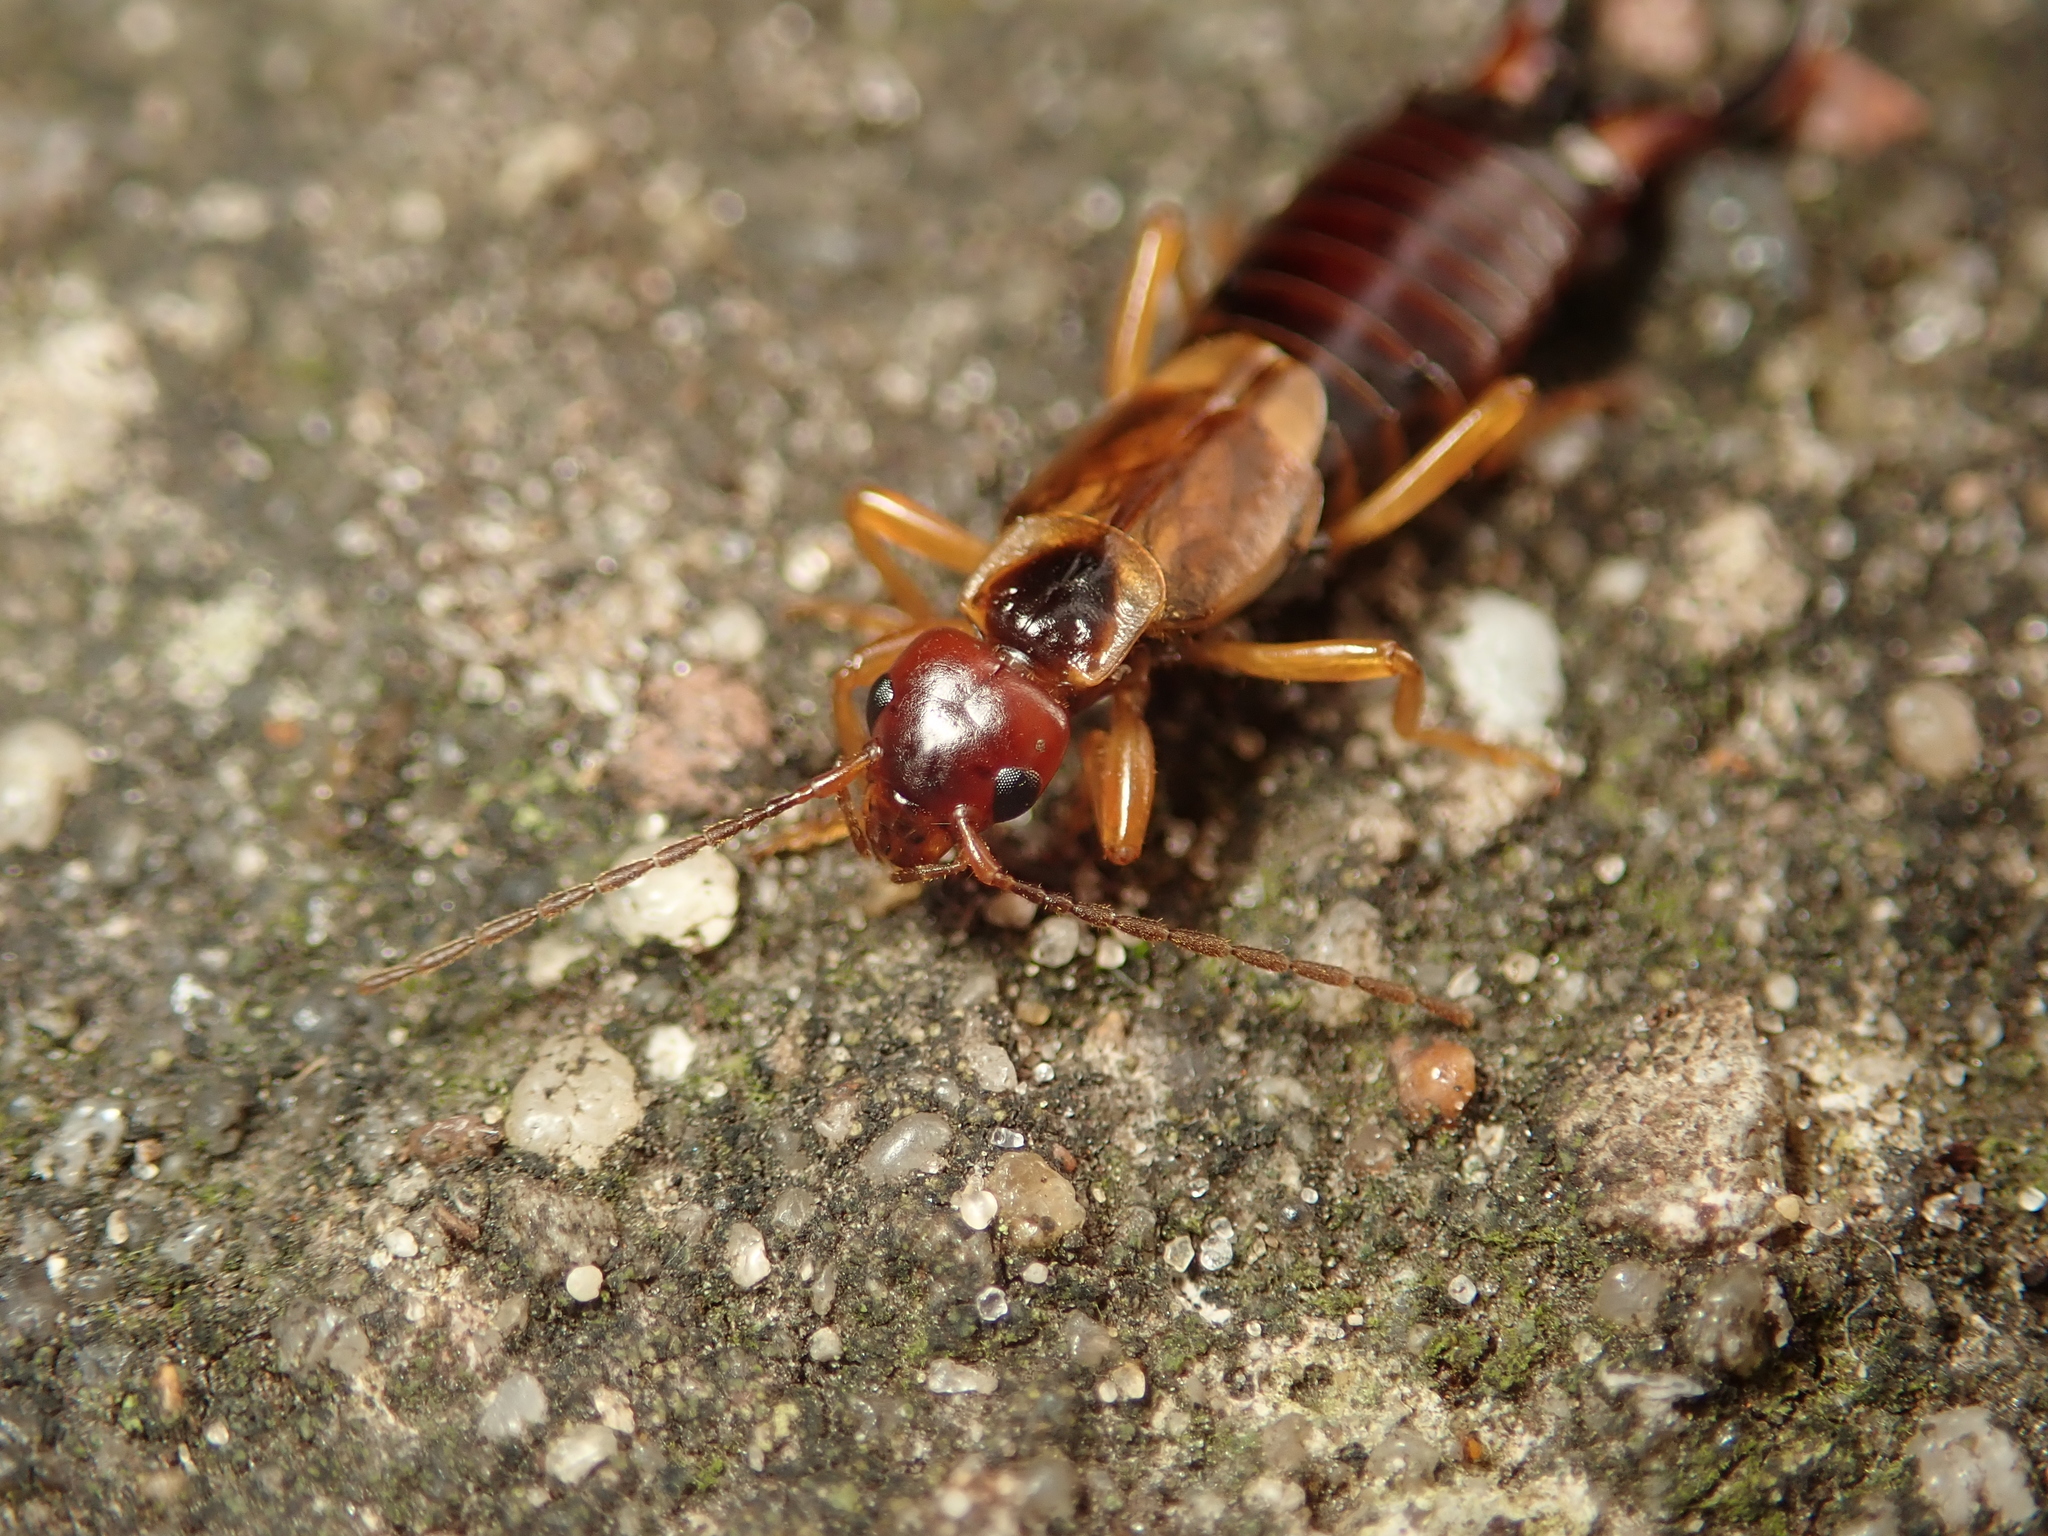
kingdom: Animalia
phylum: Arthropoda
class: Insecta
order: Dermaptera
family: Forficulidae
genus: Forficula
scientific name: Forficula
